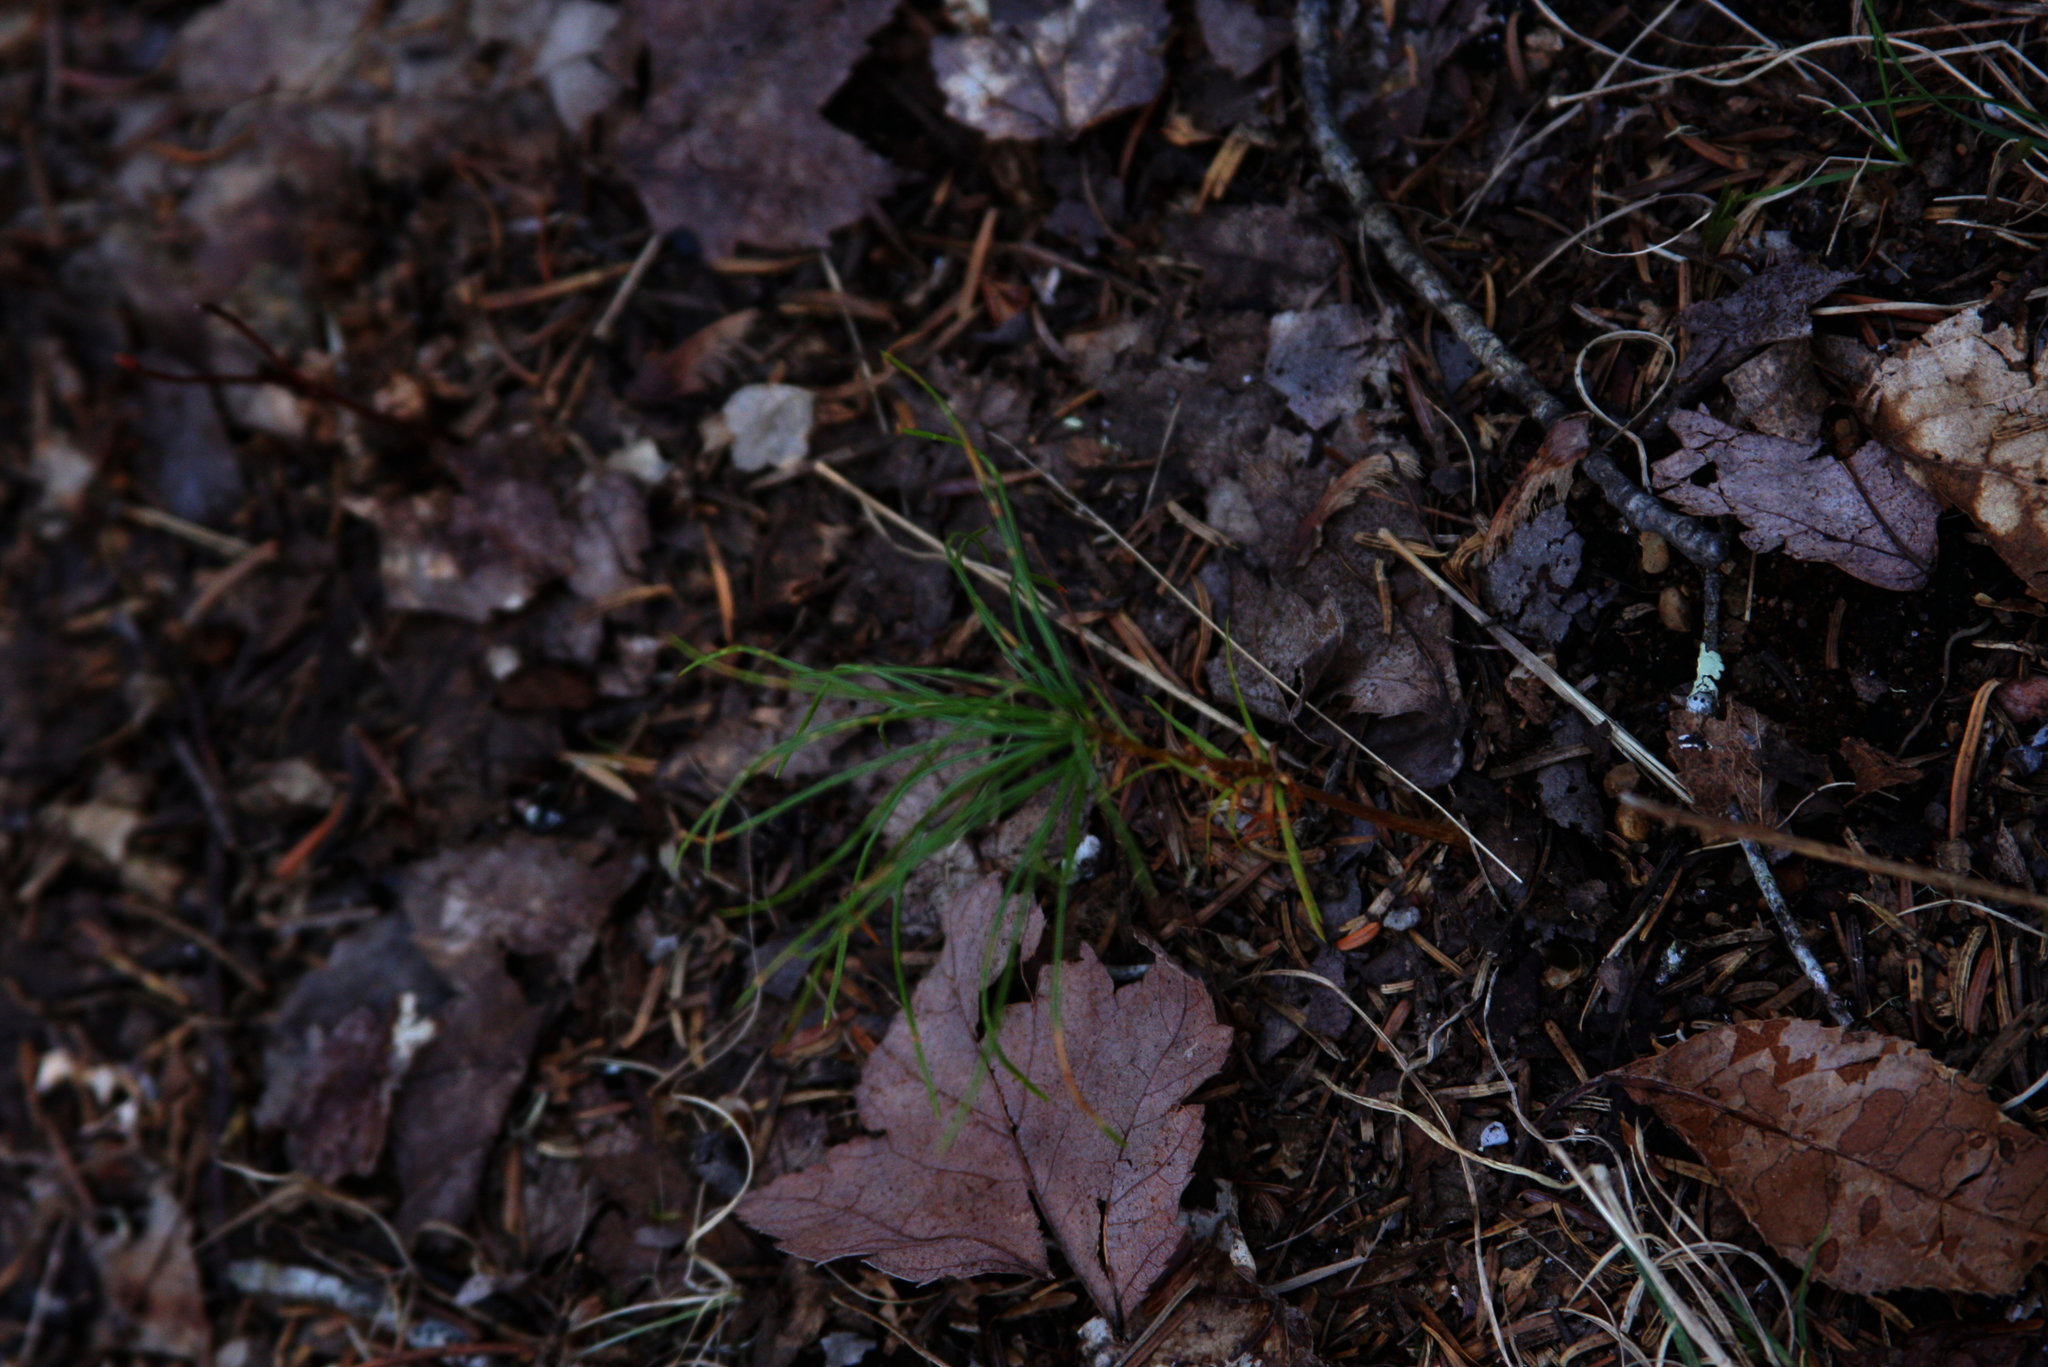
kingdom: Plantae
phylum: Tracheophyta
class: Pinopsida
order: Pinales
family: Pinaceae
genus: Pinus
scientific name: Pinus strobus
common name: Weymouth pine
